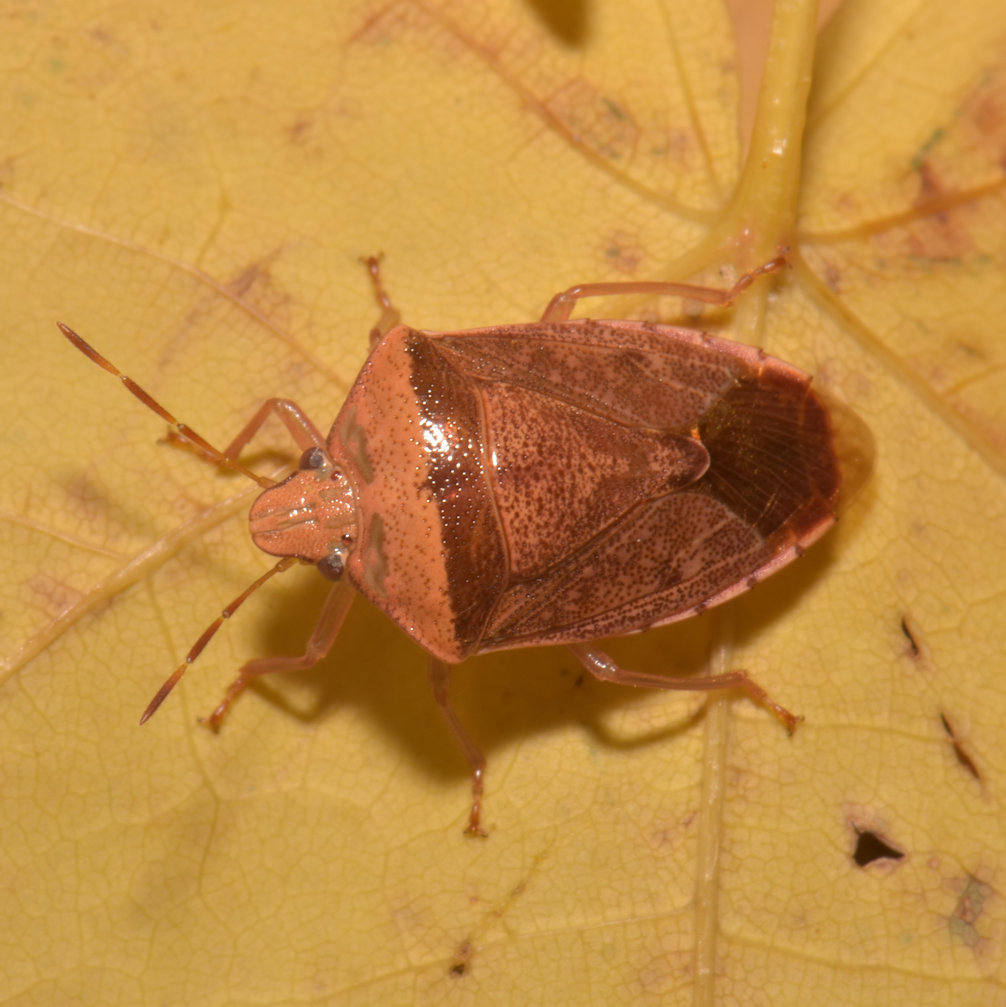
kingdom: Animalia
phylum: Arthropoda
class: Insecta
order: Hemiptera
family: Pentatomidae
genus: Banasa
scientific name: Banasa calva
